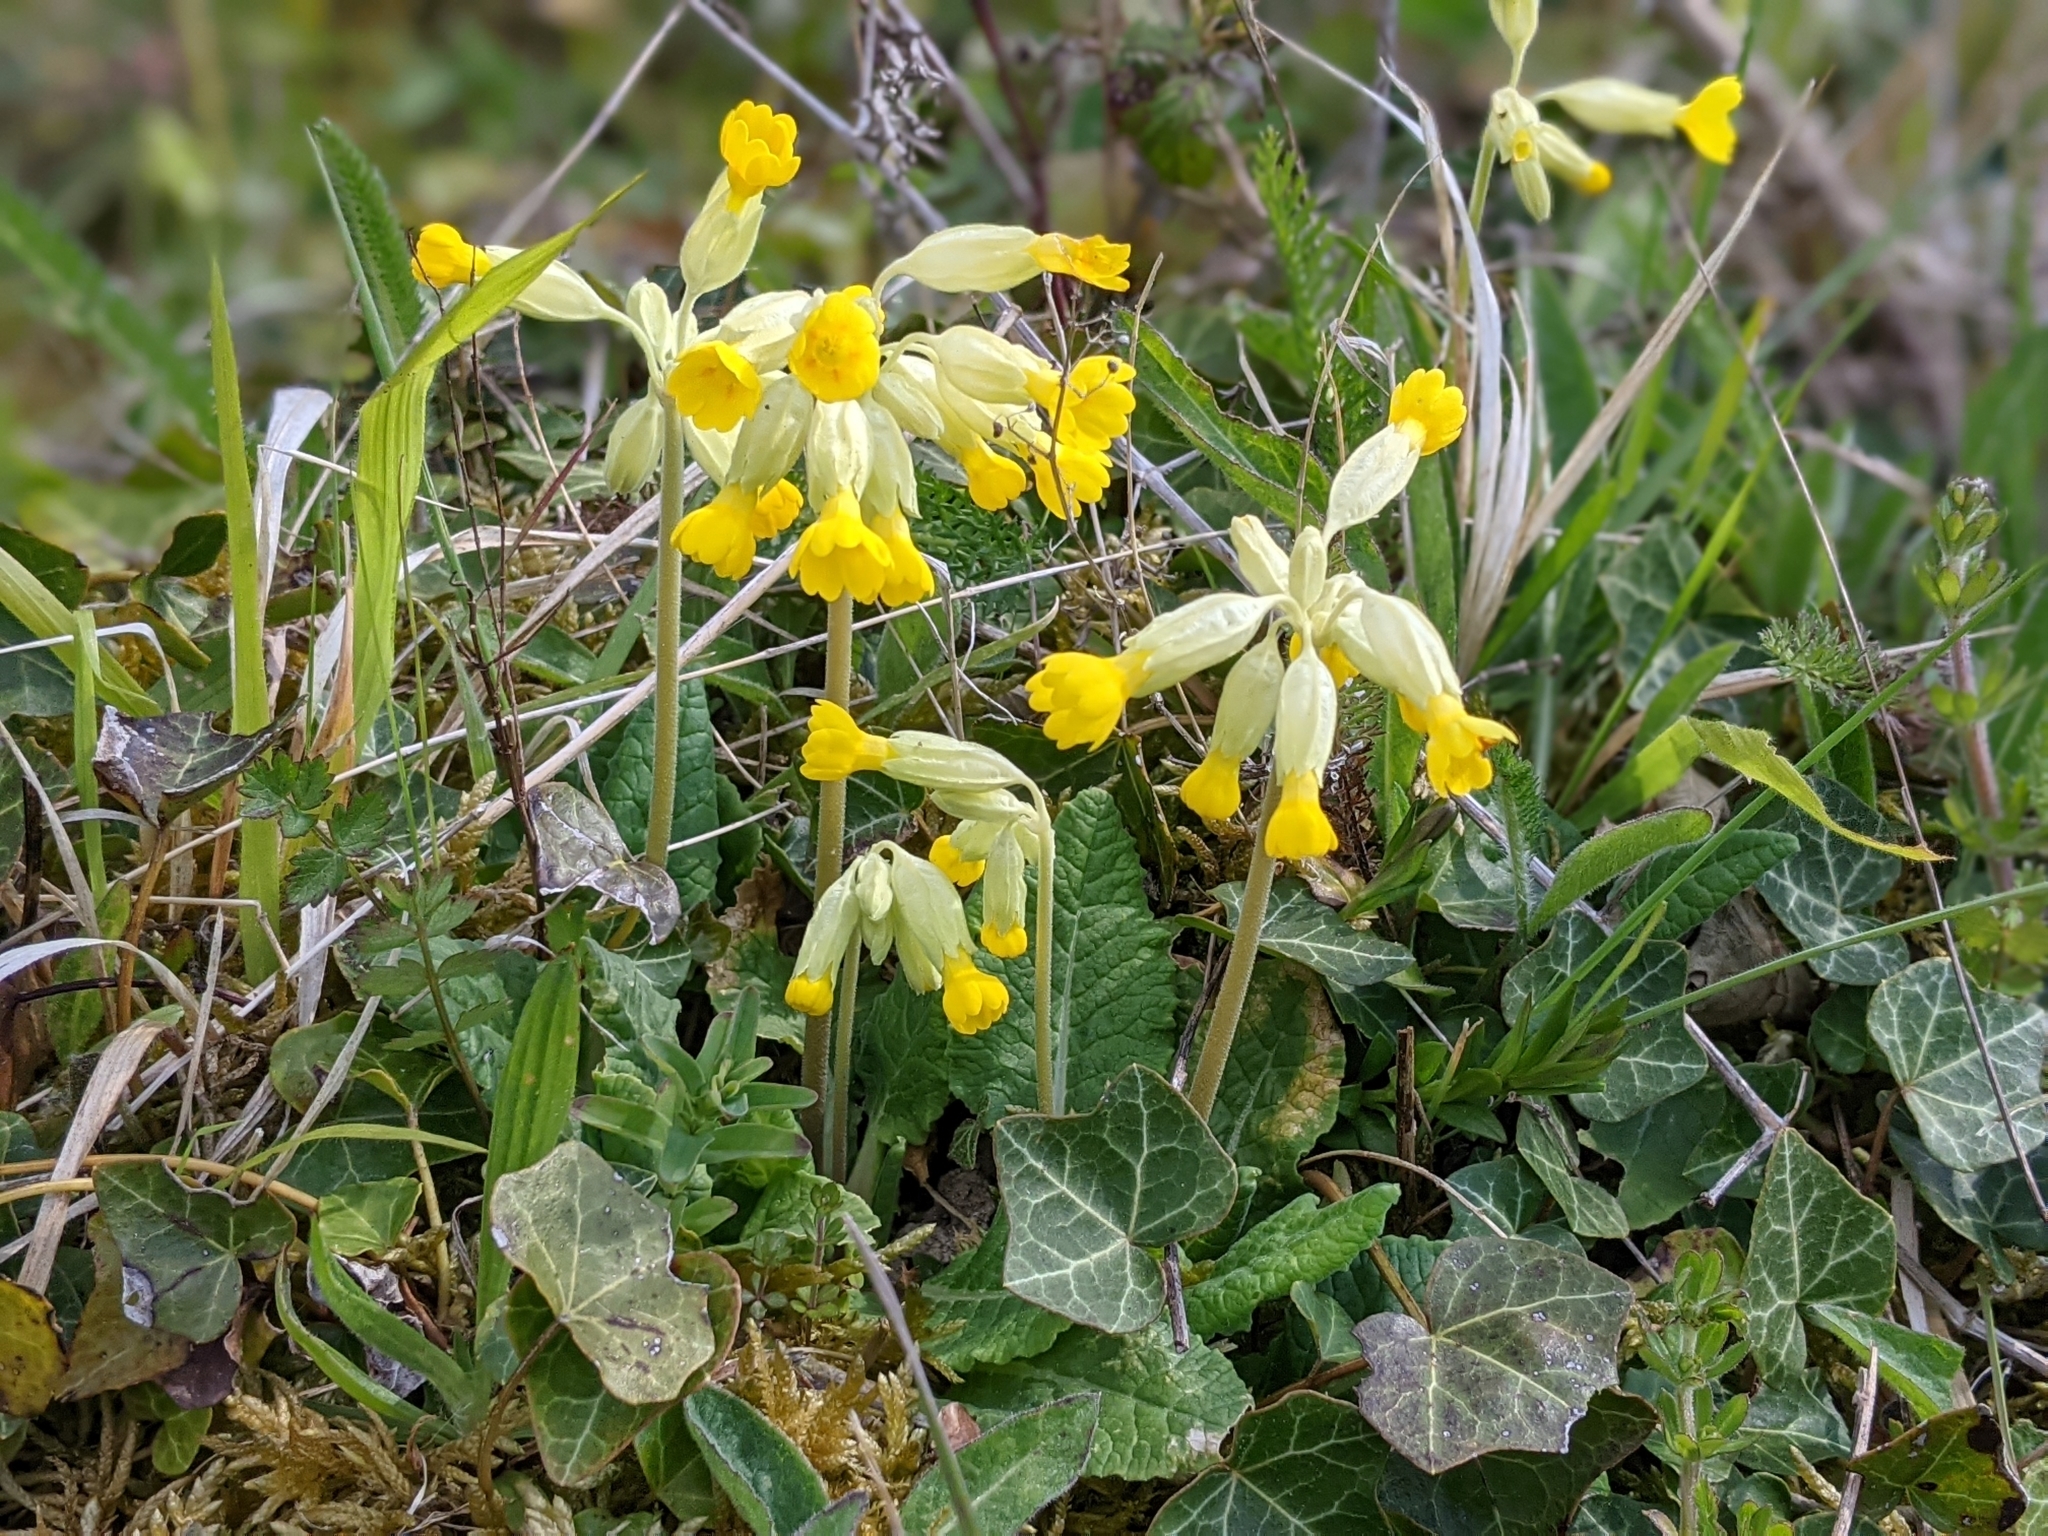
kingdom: Plantae
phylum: Tracheophyta
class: Magnoliopsida
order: Ericales
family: Primulaceae
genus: Primula
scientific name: Primula veris
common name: Cowslip
